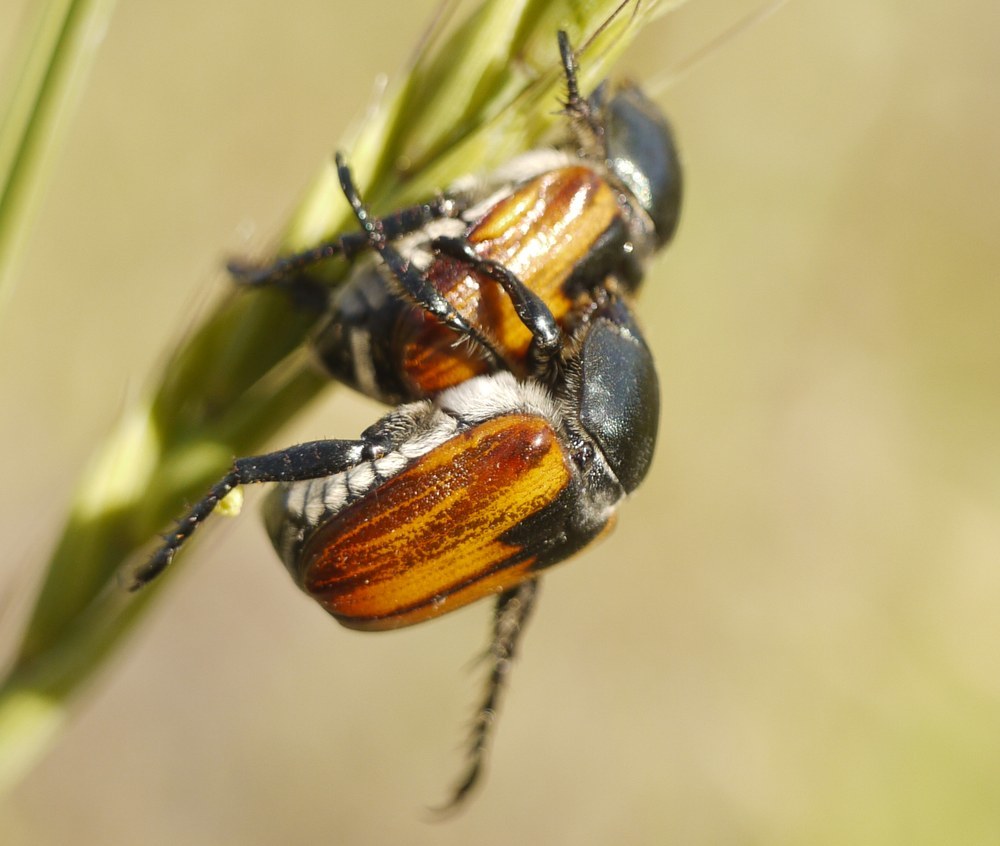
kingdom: Animalia
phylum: Arthropoda
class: Insecta
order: Coleoptera
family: Scarabaeidae
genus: Anisoplia
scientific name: Anisoplia austriaca
